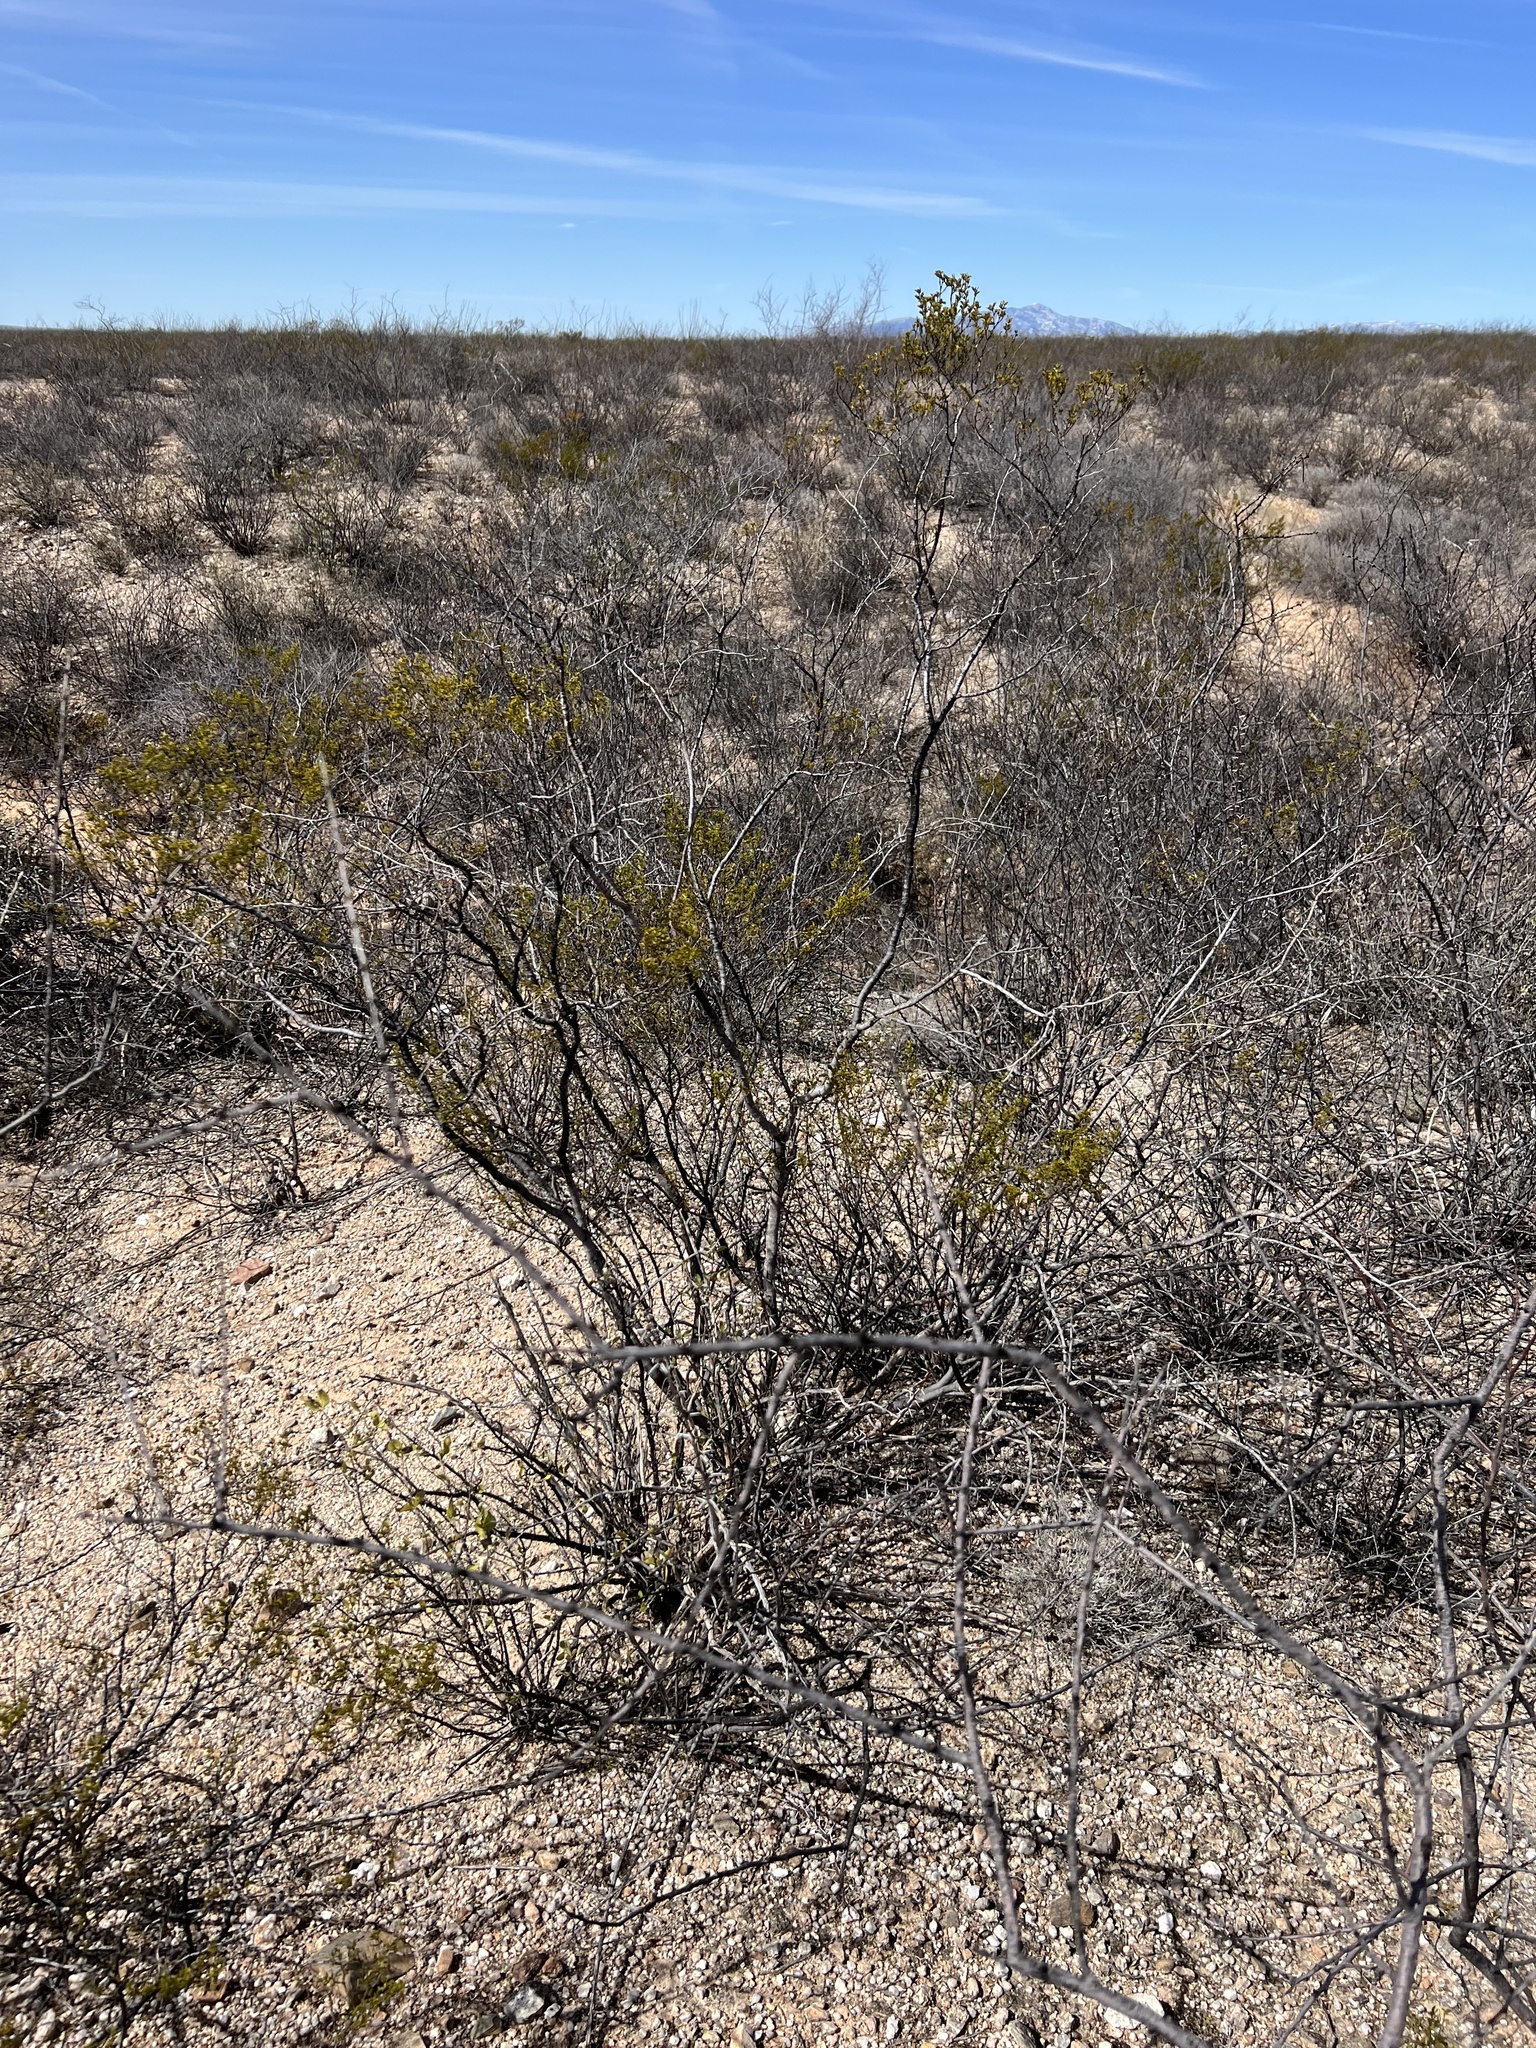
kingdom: Plantae
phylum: Tracheophyta
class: Magnoliopsida
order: Zygophyllales
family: Zygophyllaceae
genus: Larrea
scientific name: Larrea tridentata
